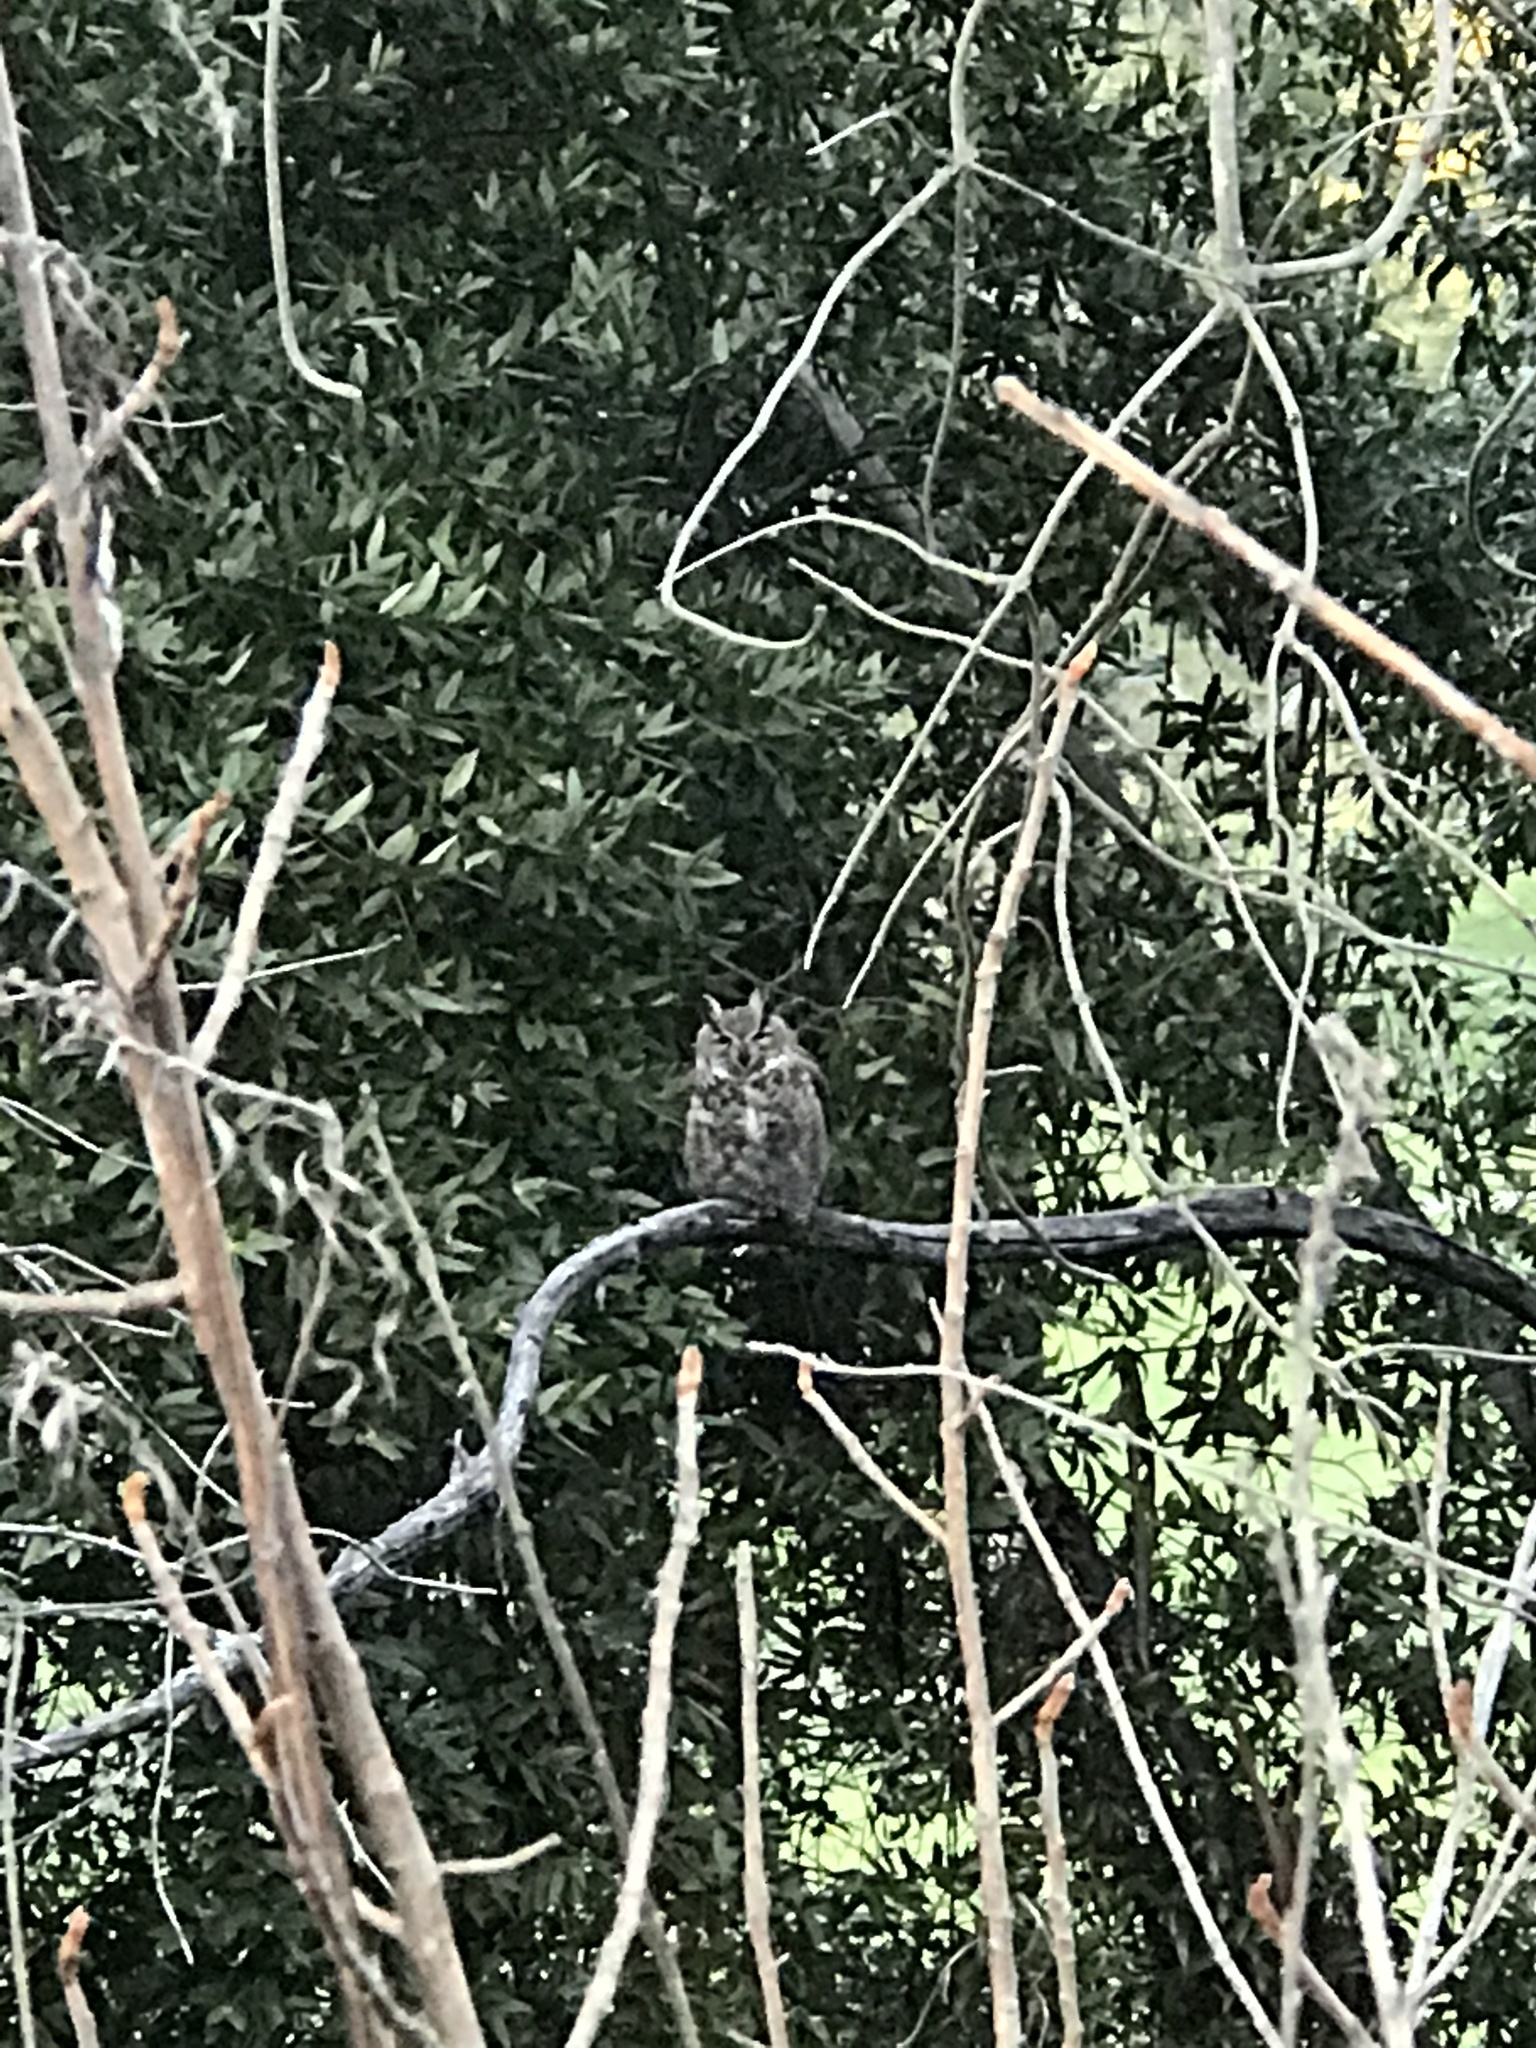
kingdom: Animalia
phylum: Chordata
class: Aves
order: Strigiformes
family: Strigidae
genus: Bubo
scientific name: Bubo virginianus
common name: Great horned owl
